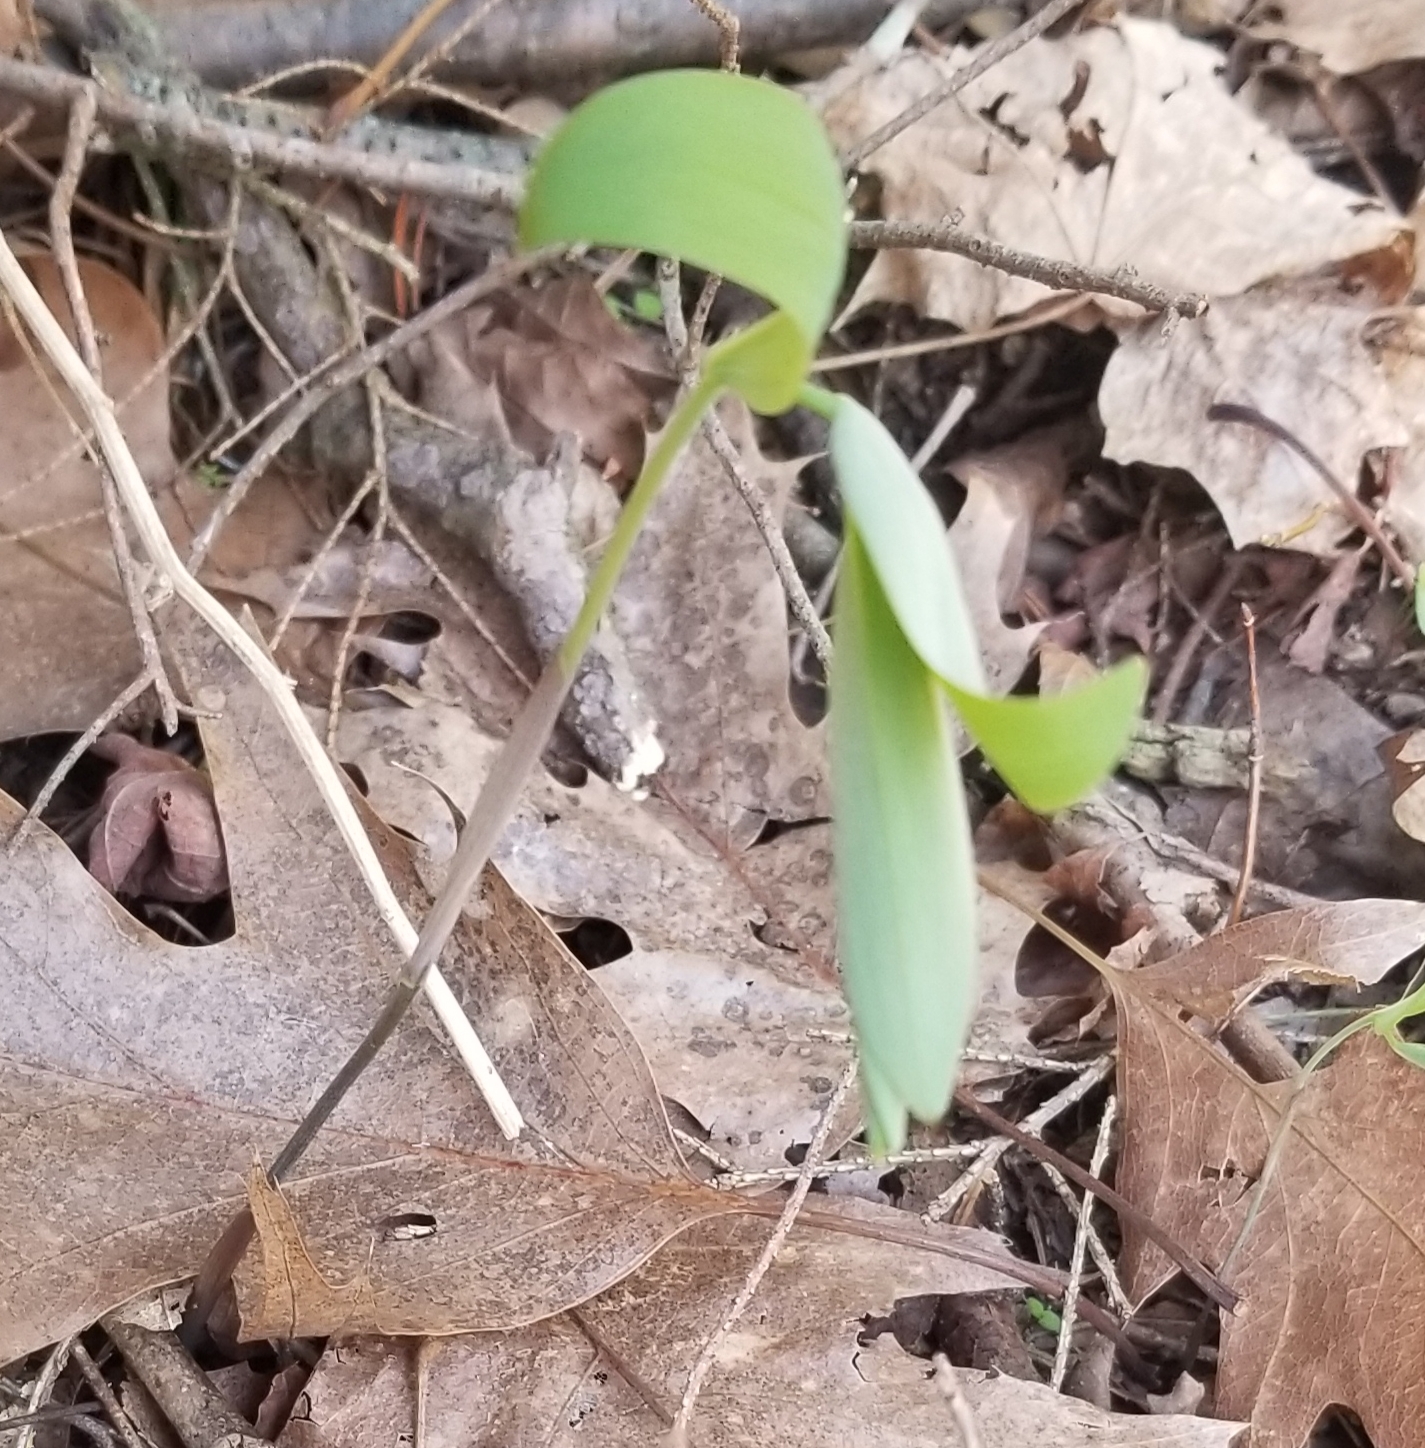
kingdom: Plantae
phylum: Tracheophyta
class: Liliopsida
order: Asparagales
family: Asparagaceae
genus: Polygonatum
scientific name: Polygonatum pubescens
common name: Downy solomon's seal
